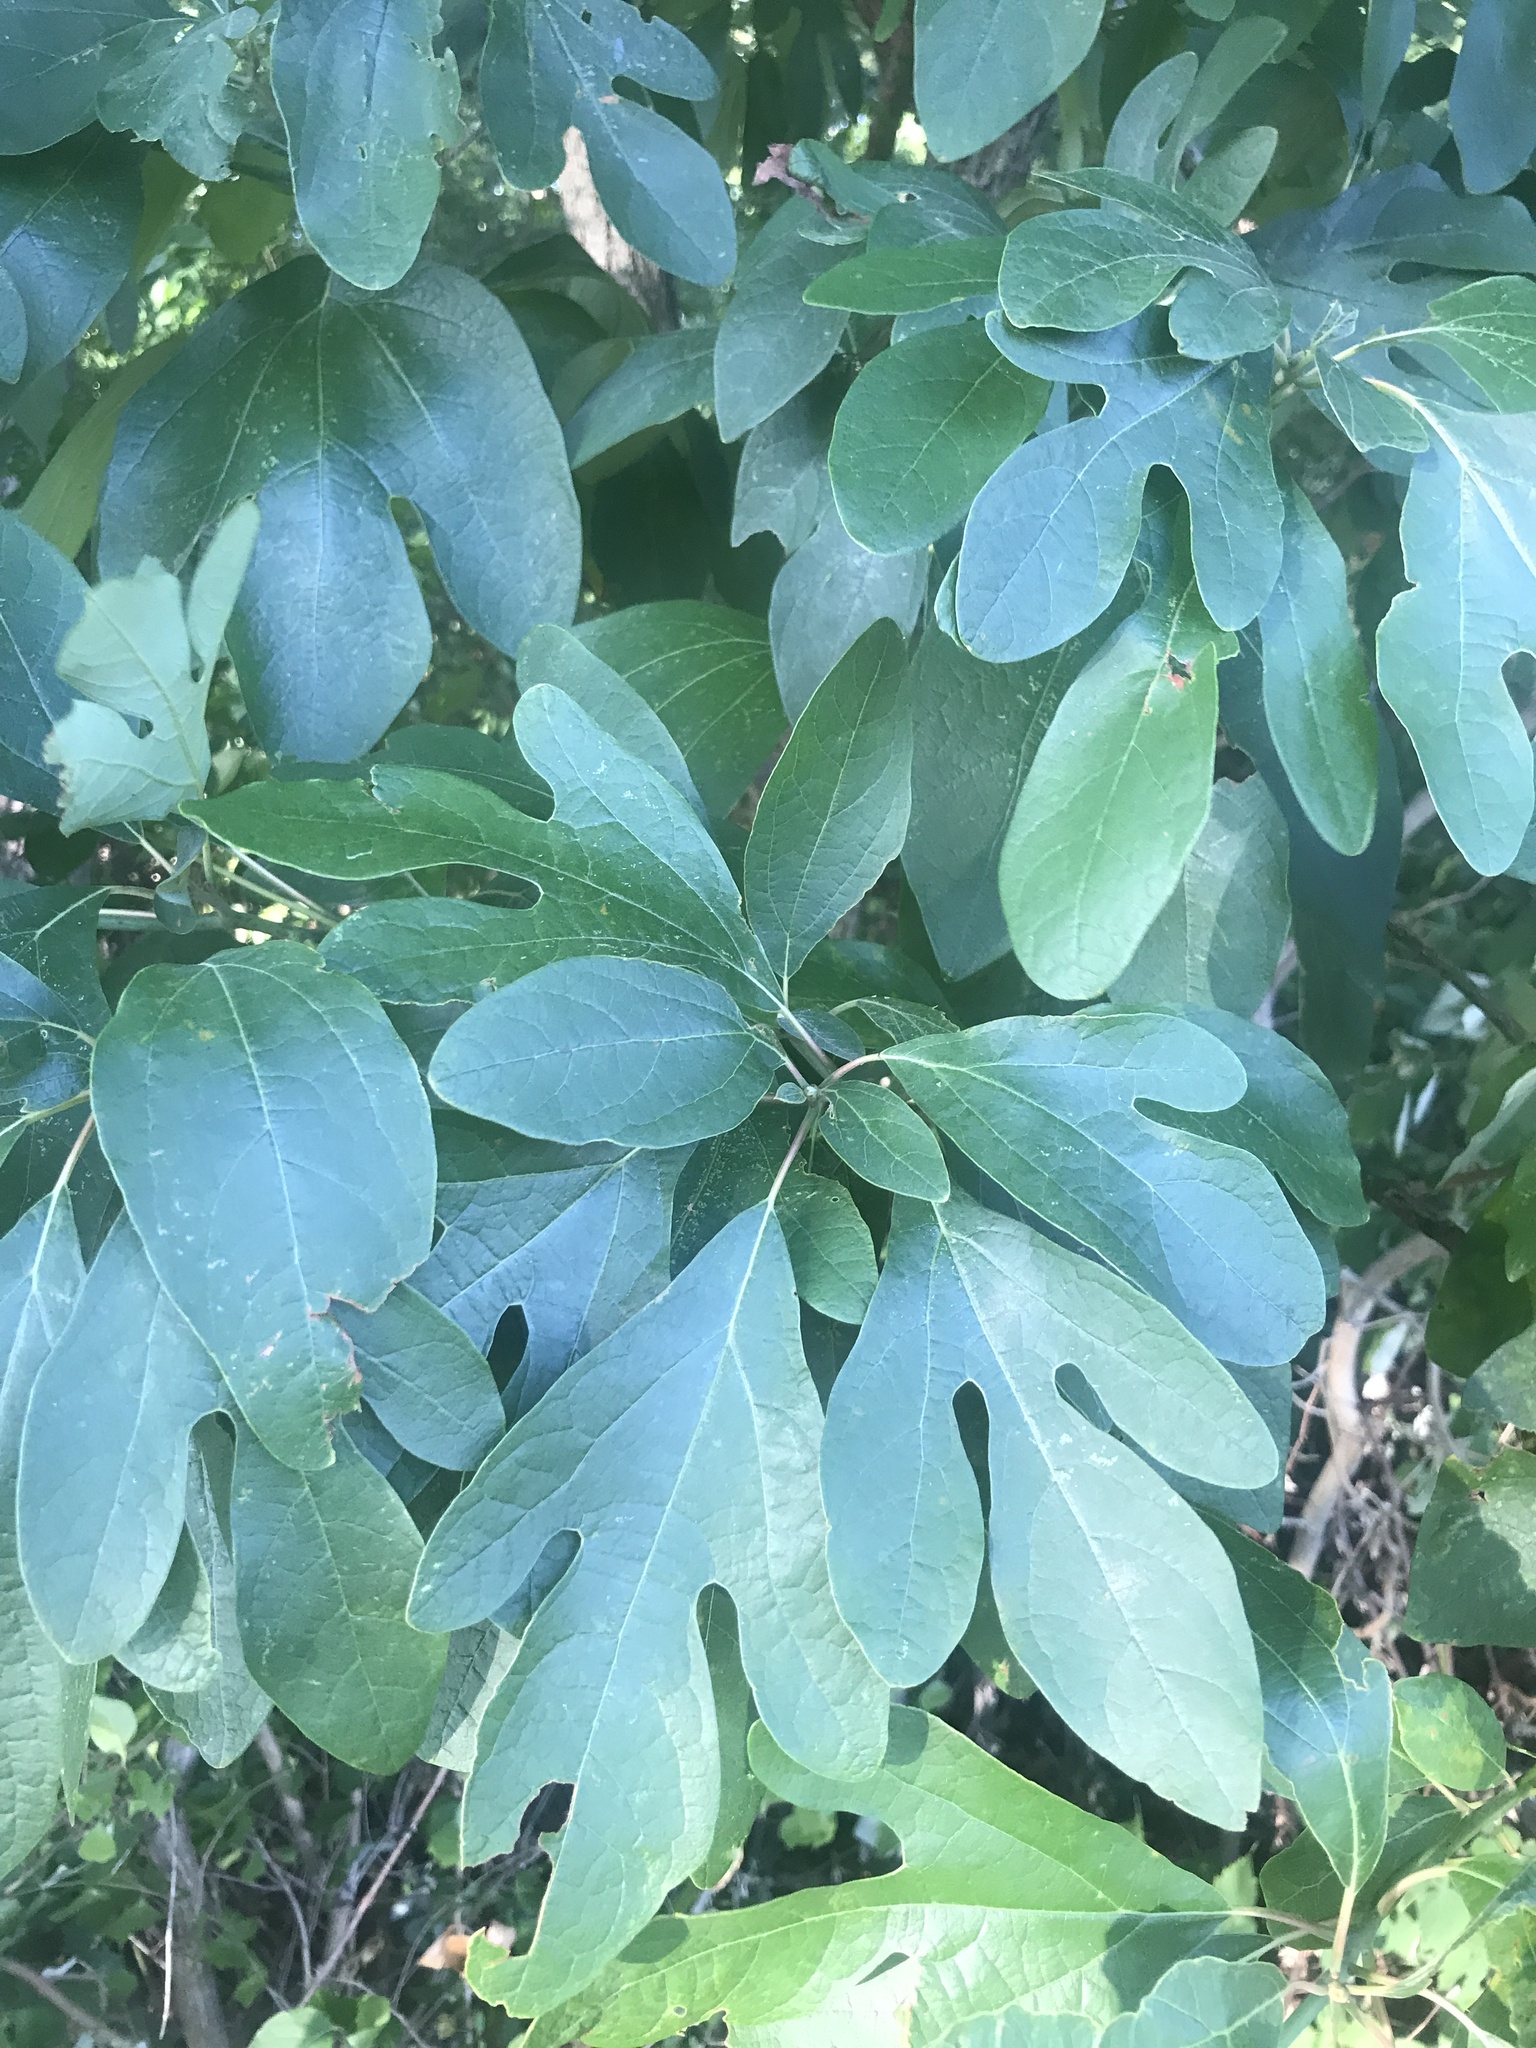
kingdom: Plantae
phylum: Tracheophyta
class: Magnoliopsida
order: Laurales
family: Lauraceae
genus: Sassafras
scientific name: Sassafras albidum
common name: Sassafras
